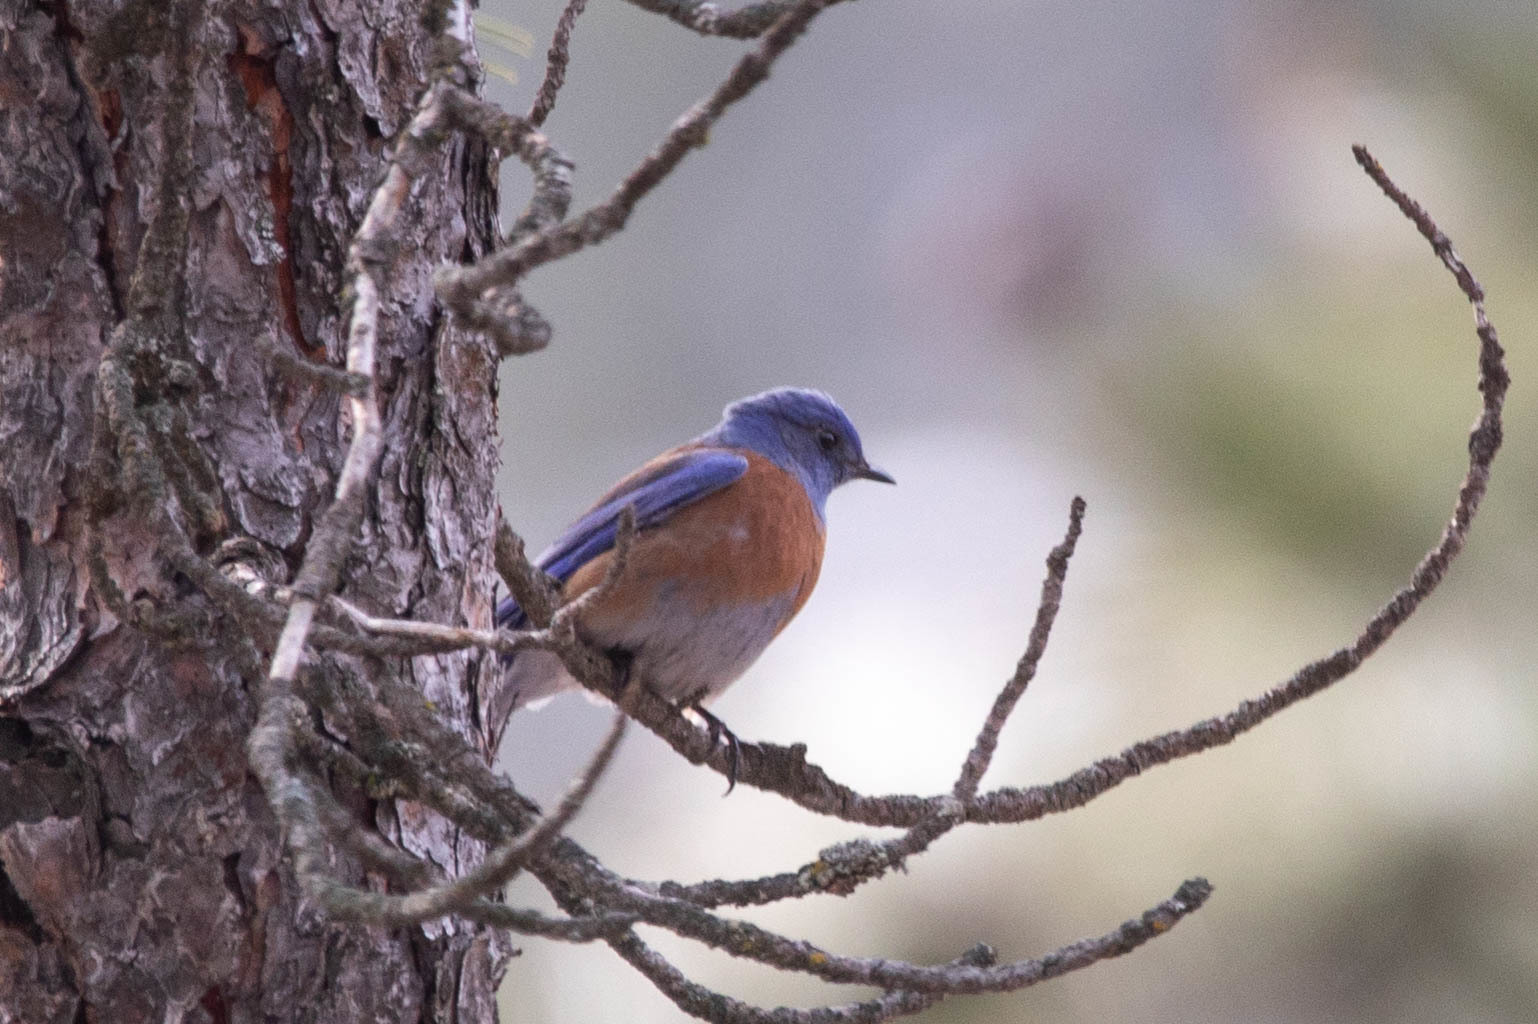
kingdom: Animalia
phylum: Chordata
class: Aves
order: Passeriformes
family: Turdidae
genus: Sialia
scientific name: Sialia mexicana
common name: Western bluebird
